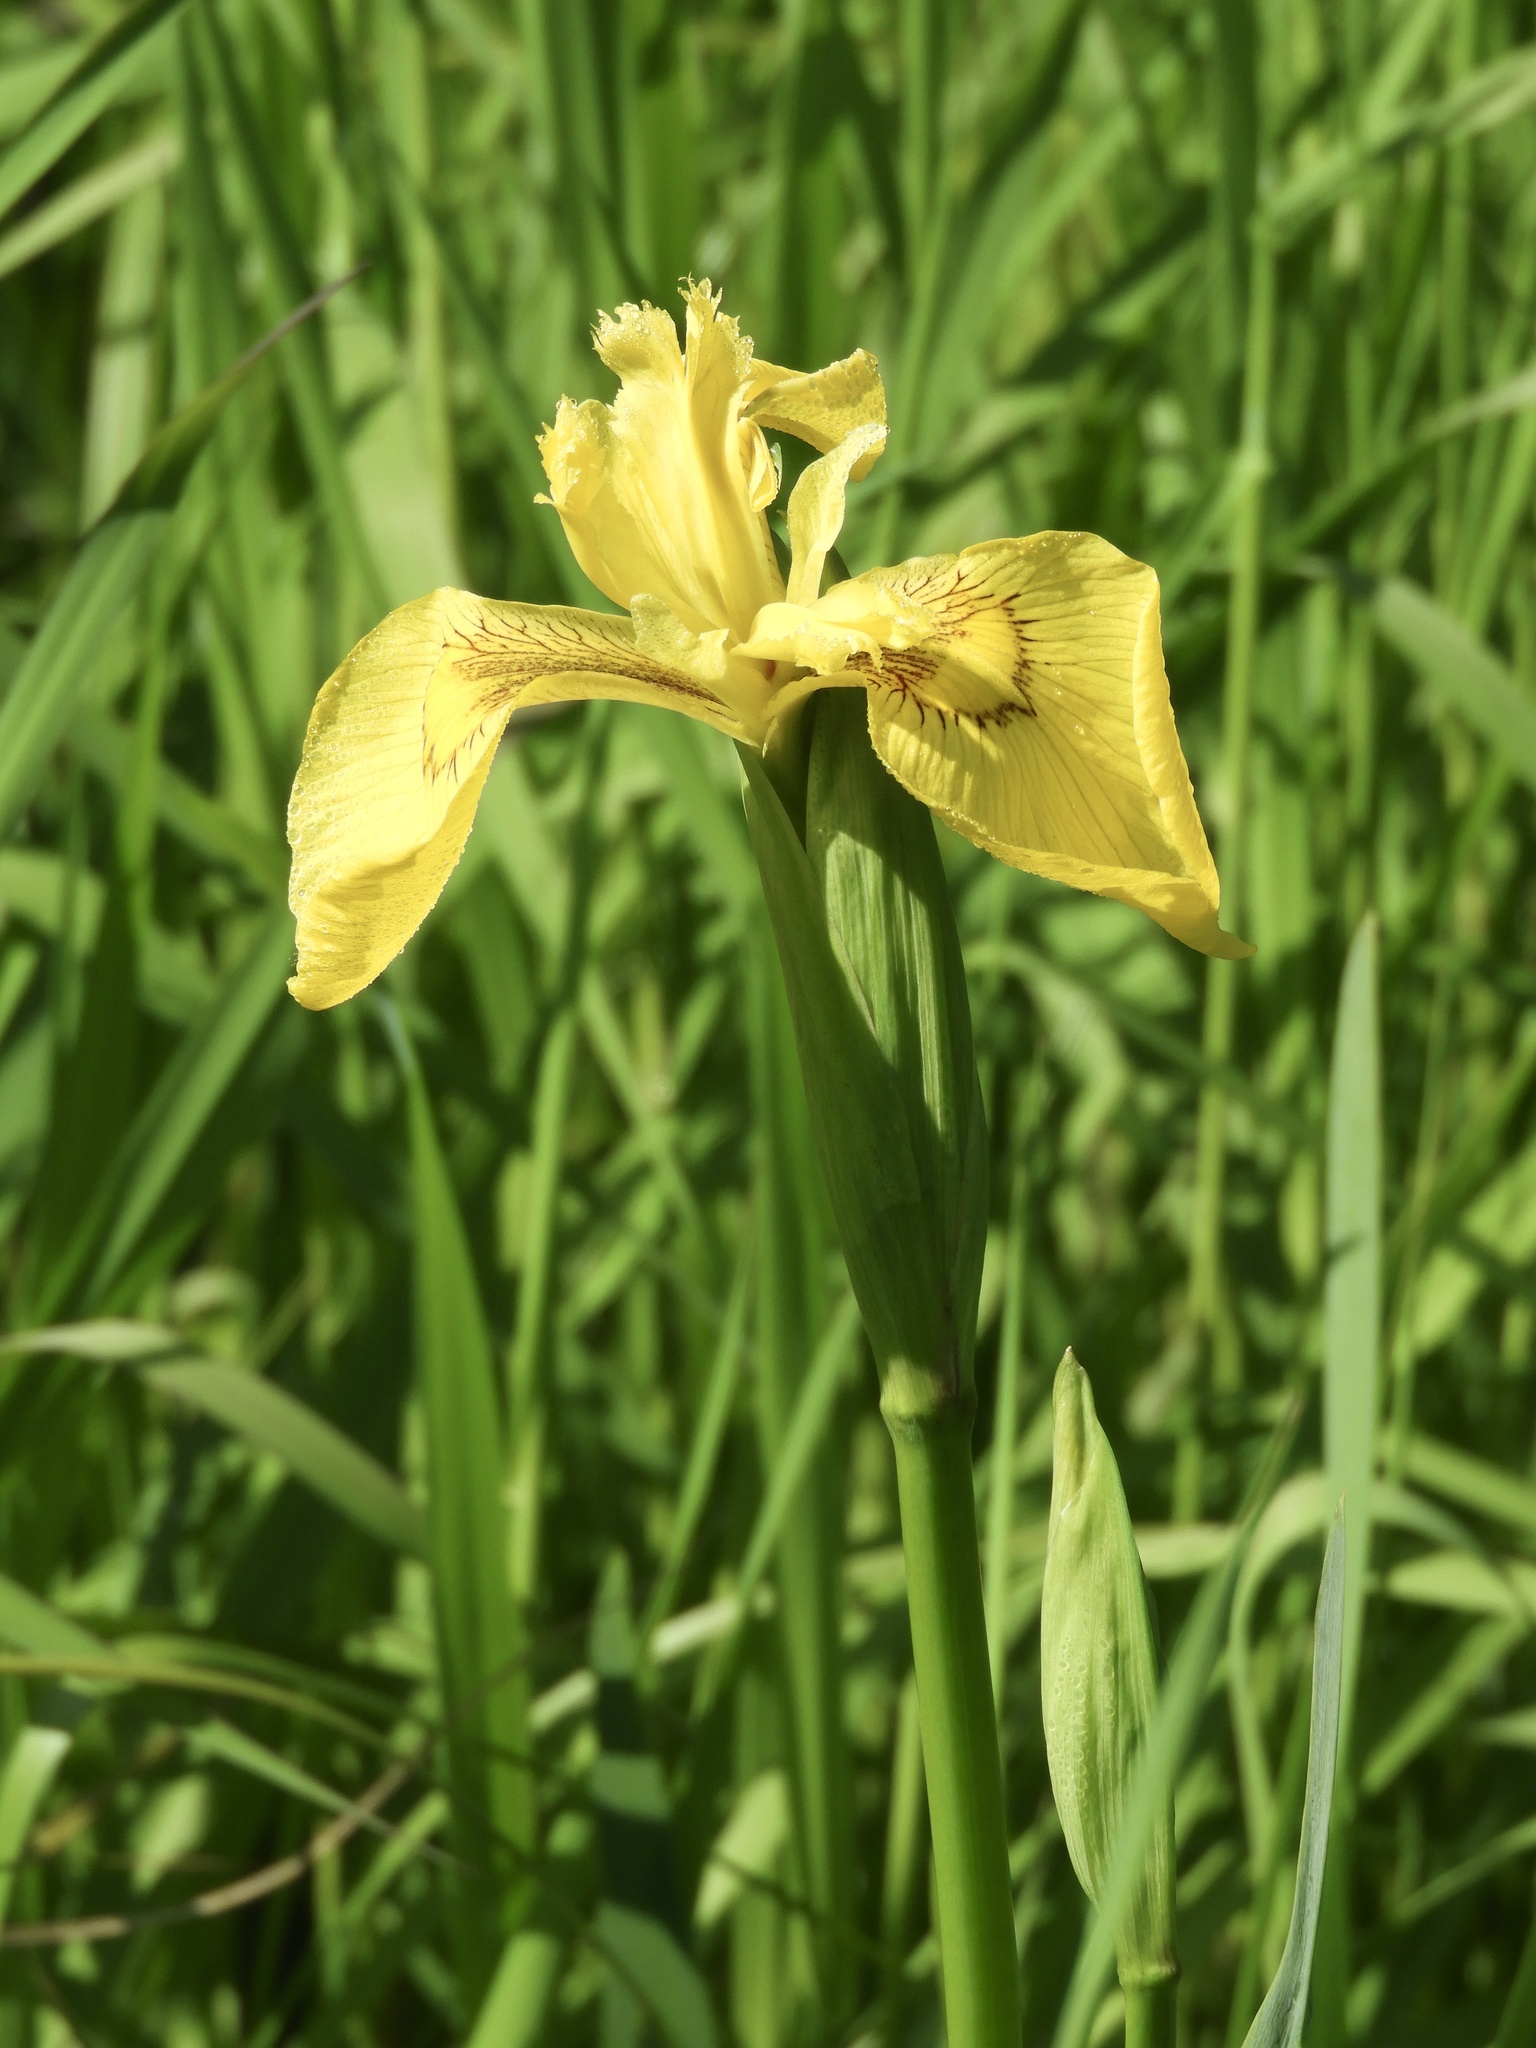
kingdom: Plantae
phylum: Tracheophyta
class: Liliopsida
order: Asparagales
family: Iridaceae
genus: Iris
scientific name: Iris pseudacorus
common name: Yellow flag
